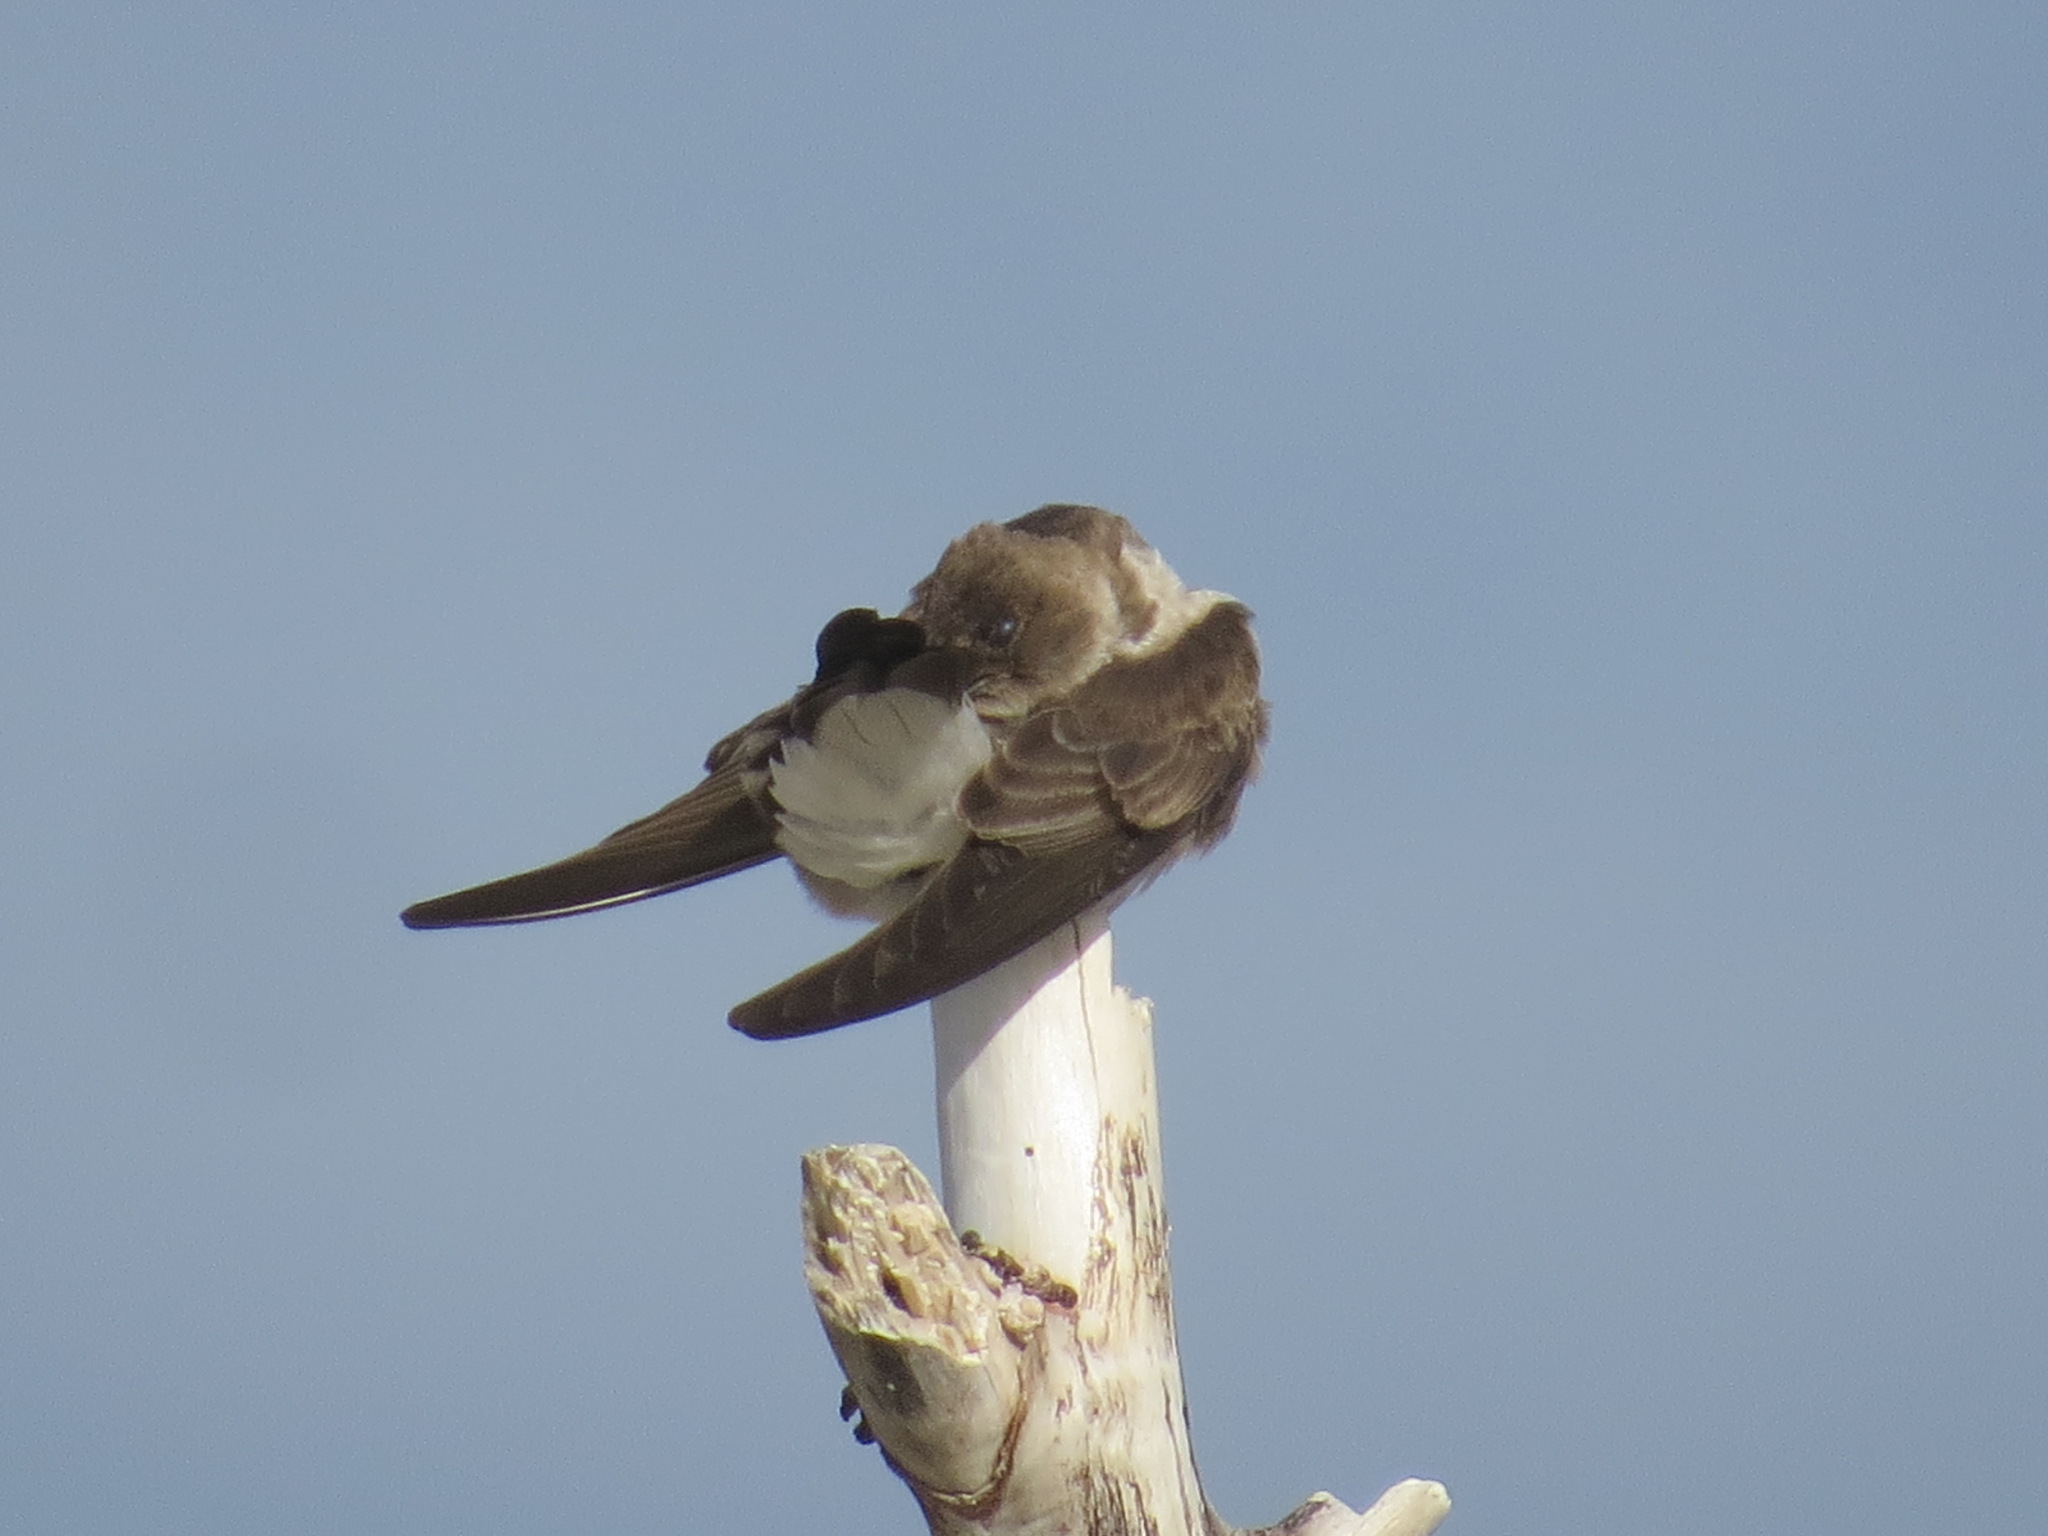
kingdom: Animalia
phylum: Chordata
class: Aves
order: Passeriformes
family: Hirundinidae
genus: Stelgidopteryx
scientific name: Stelgidopteryx serripennis
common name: Northern rough-winged swallow
